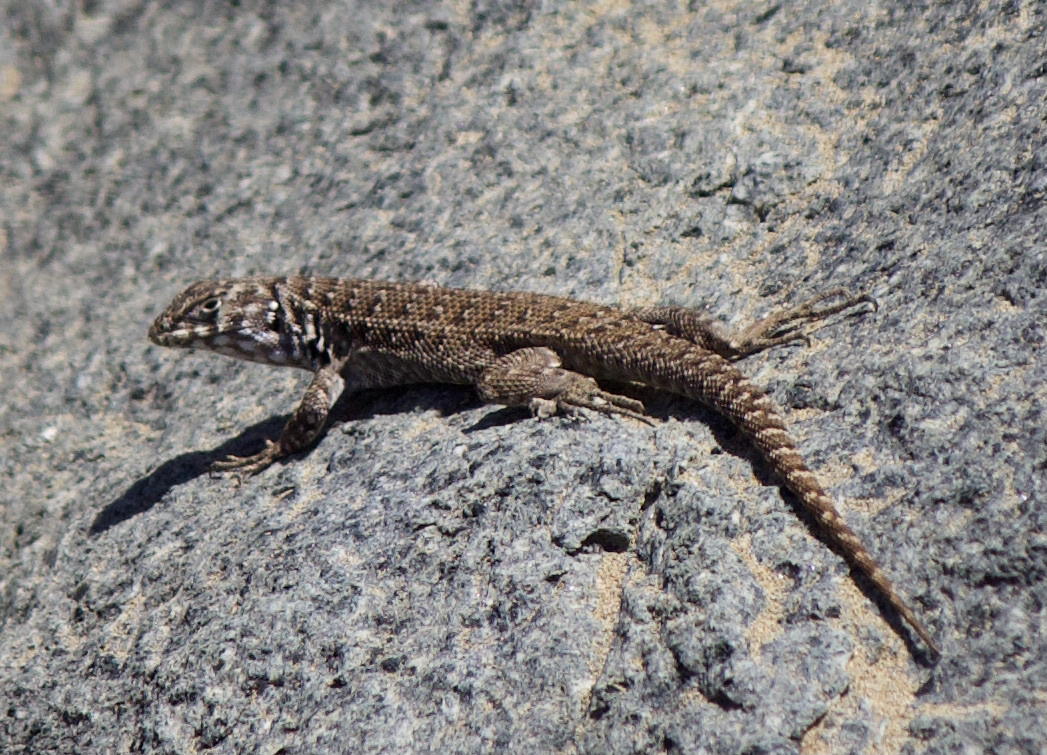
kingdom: Animalia
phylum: Chordata
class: Squamata
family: Liolaemidae
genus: Liolaemus
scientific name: Liolaemus zapallarensis
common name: Zapallaren tree iguana
